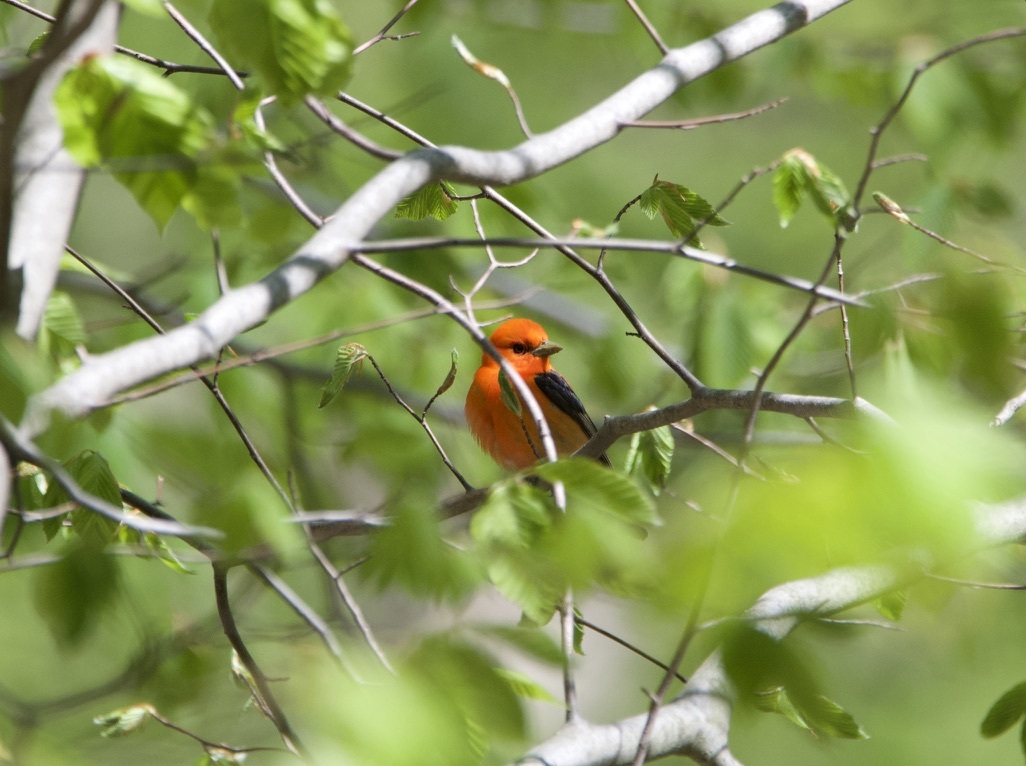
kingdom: Animalia
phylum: Chordata
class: Aves
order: Passeriformes
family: Cardinalidae
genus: Piranga
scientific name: Piranga olivacea
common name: Scarlet tanager
